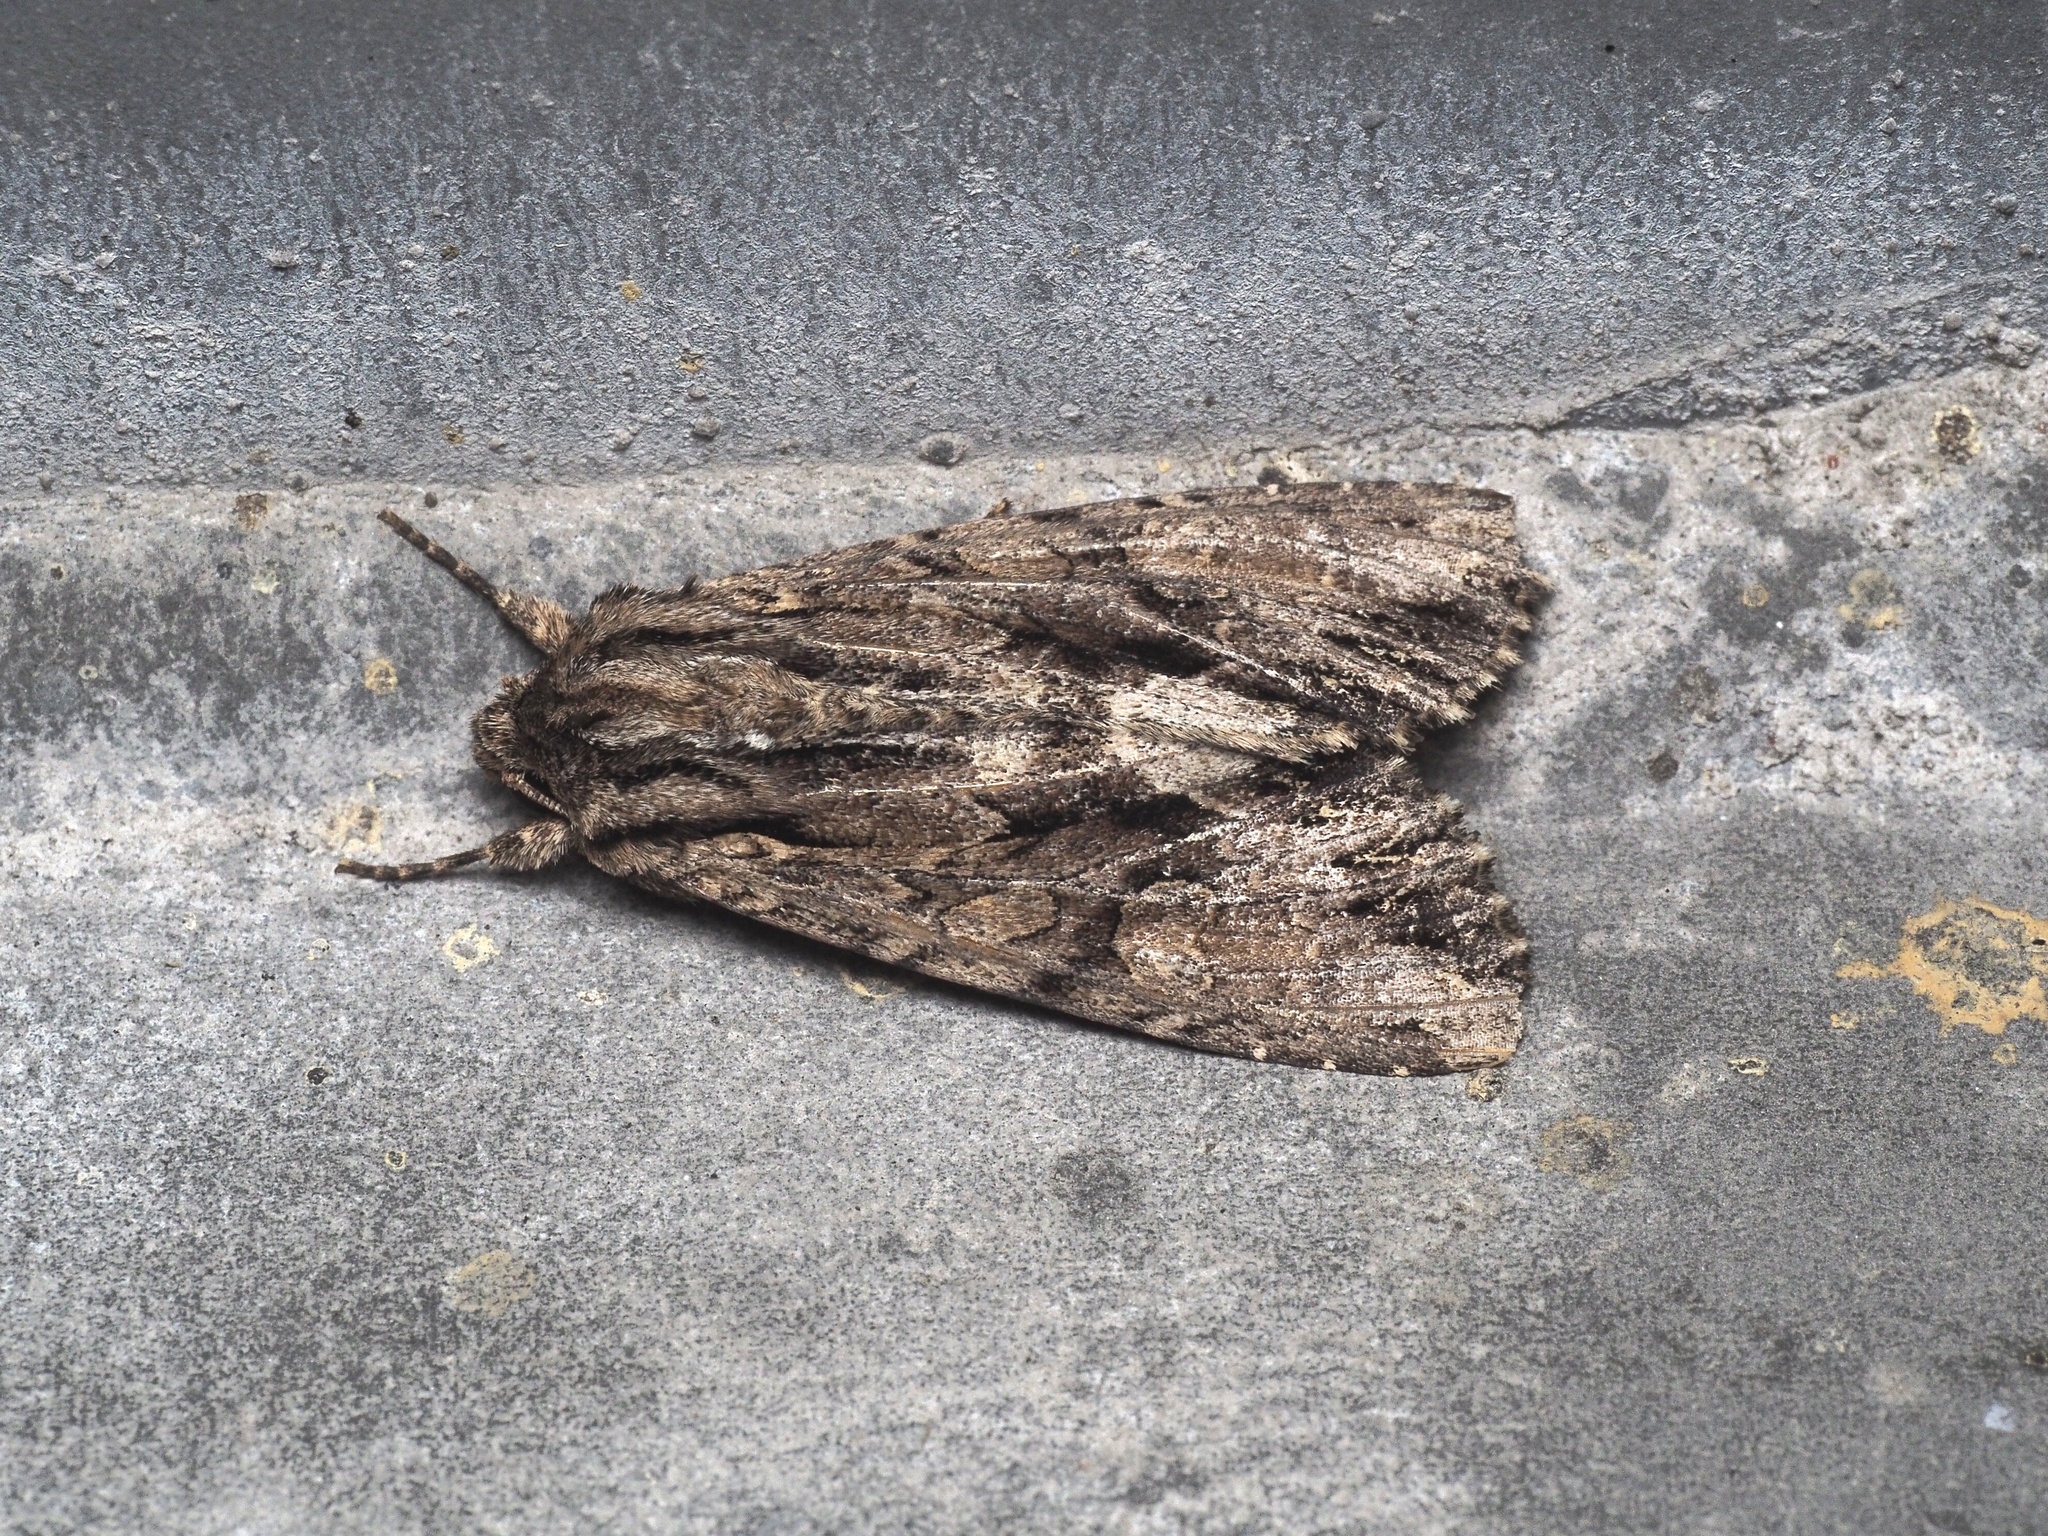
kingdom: Animalia
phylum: Arthropoda
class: Insecta
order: Lepidoptera
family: Noctuidae
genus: Apamea
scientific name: Apamea monoglypha
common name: Dark arches
